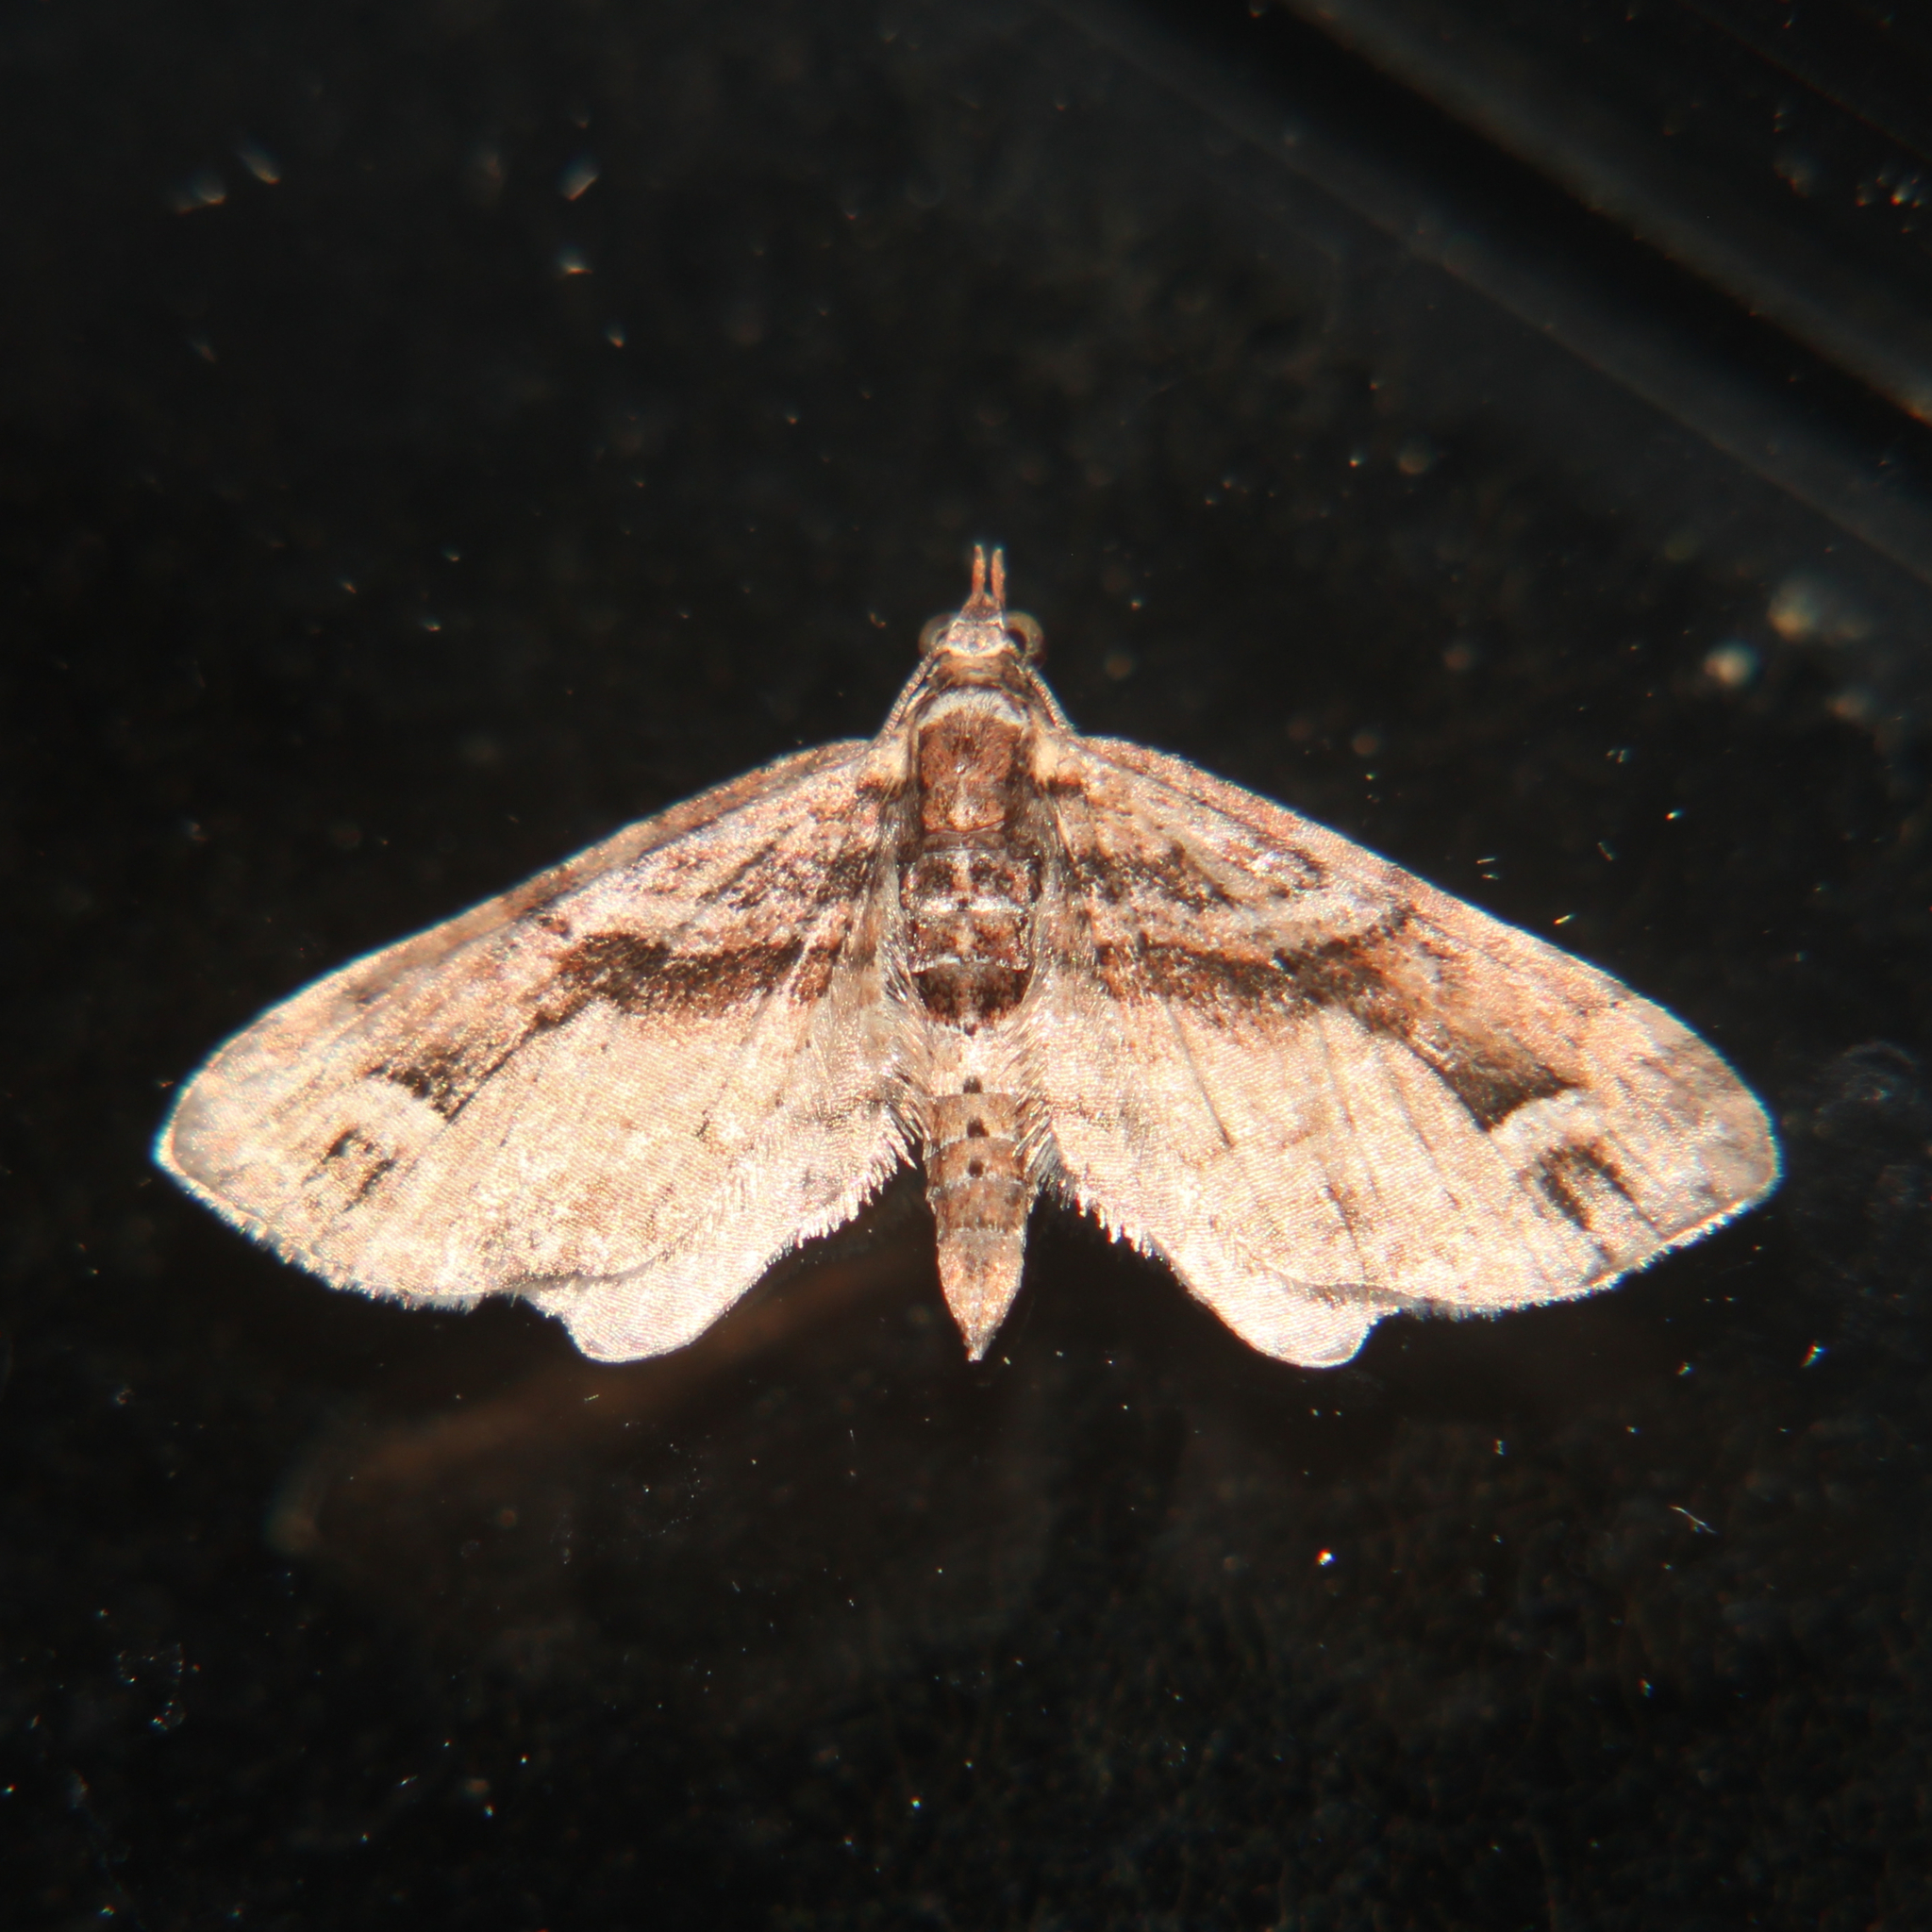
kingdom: Animalia
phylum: Arthropoda
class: Insecta
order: Lepidoptera
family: Geometridae
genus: Idaea
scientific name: Idaea mutanda
